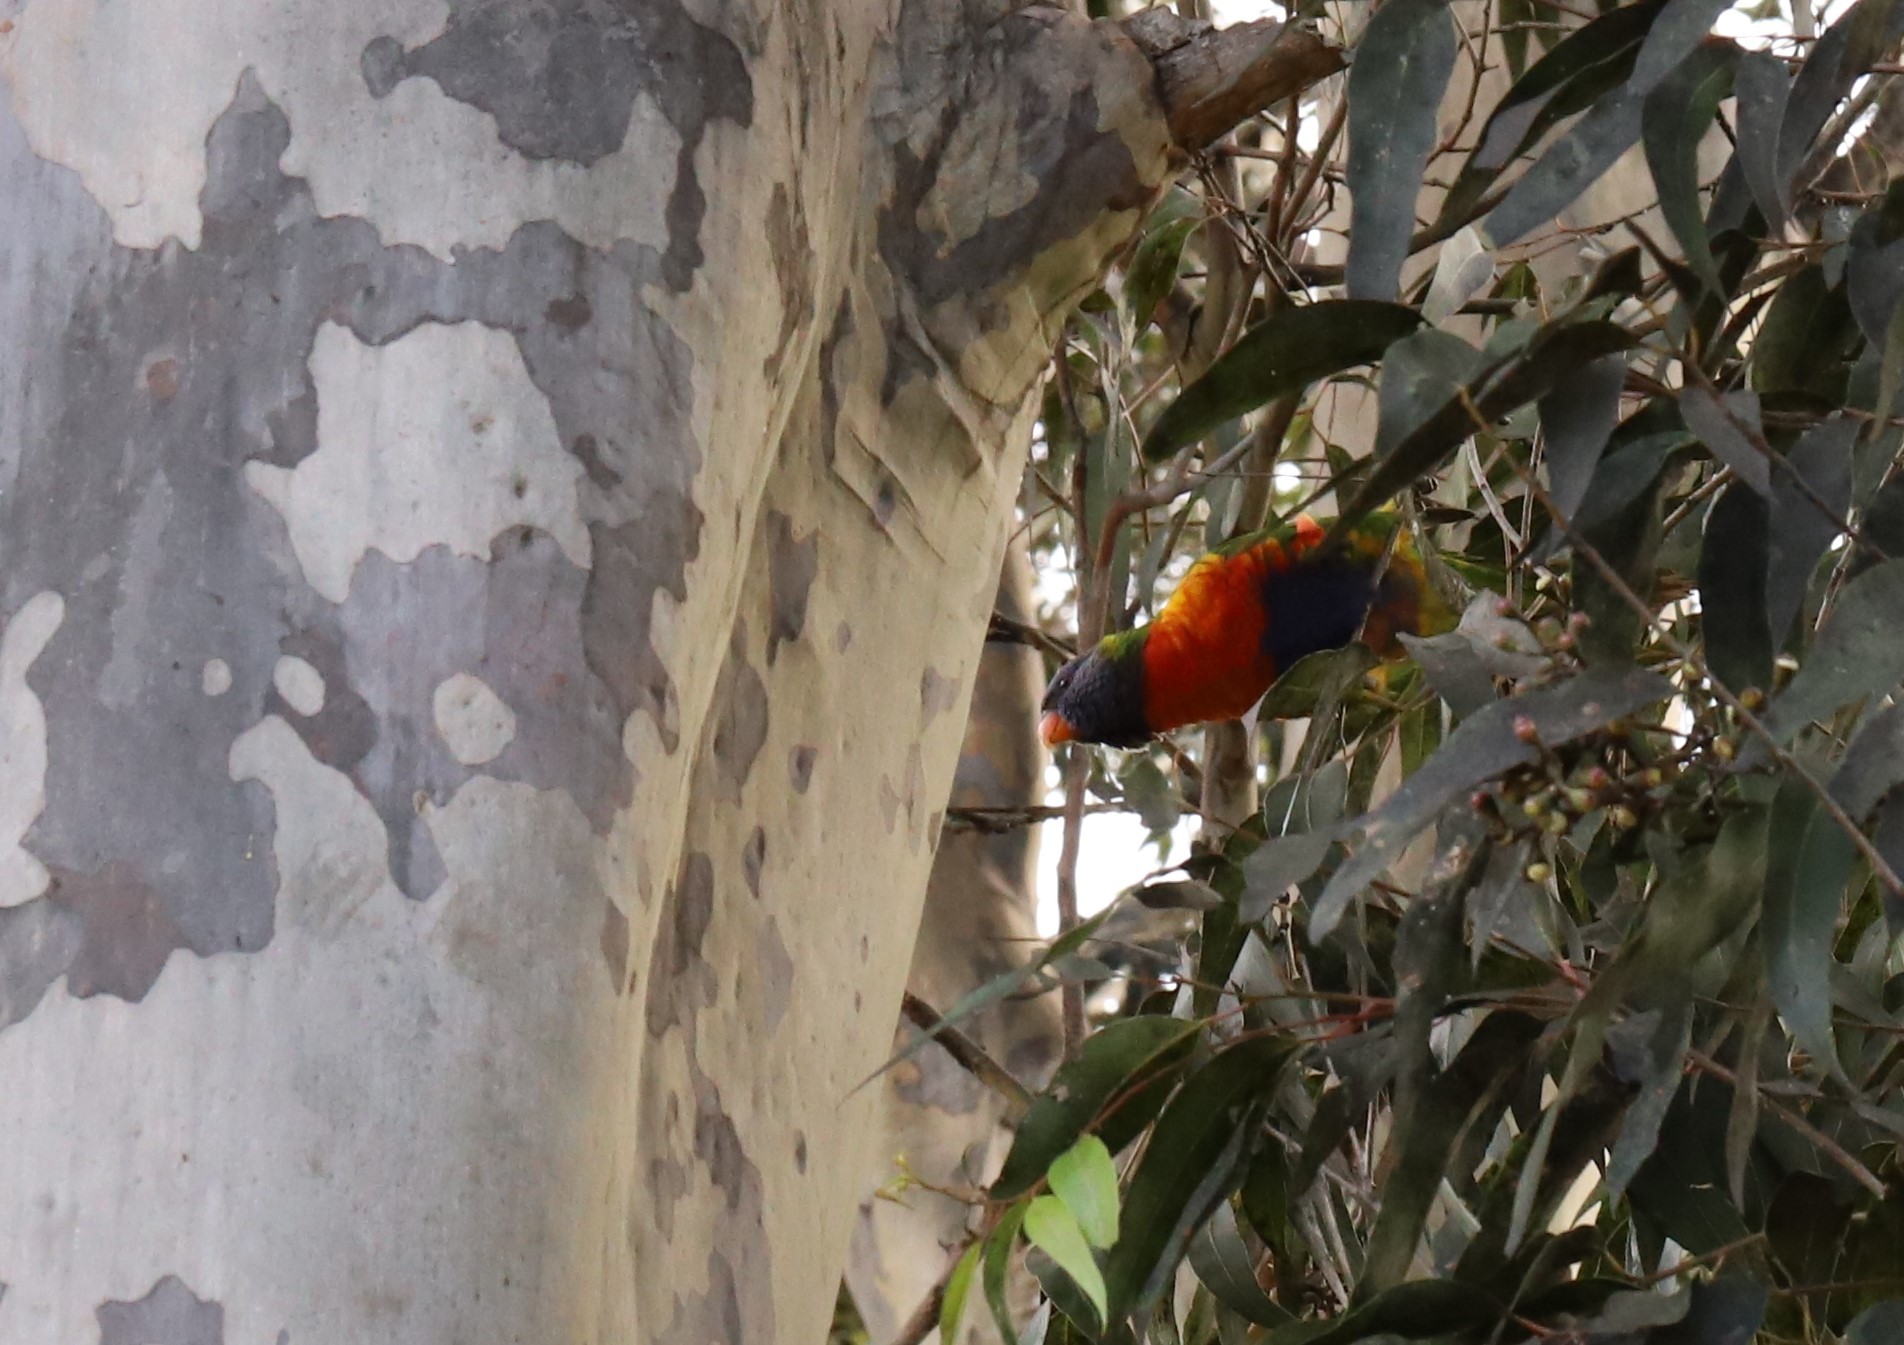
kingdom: Animalia
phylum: Chordata
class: Aves
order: Psittaciformes
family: Psittacidae
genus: Trichoglossus
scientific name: Trichoglossus haematodus
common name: Coconut lorikeet
